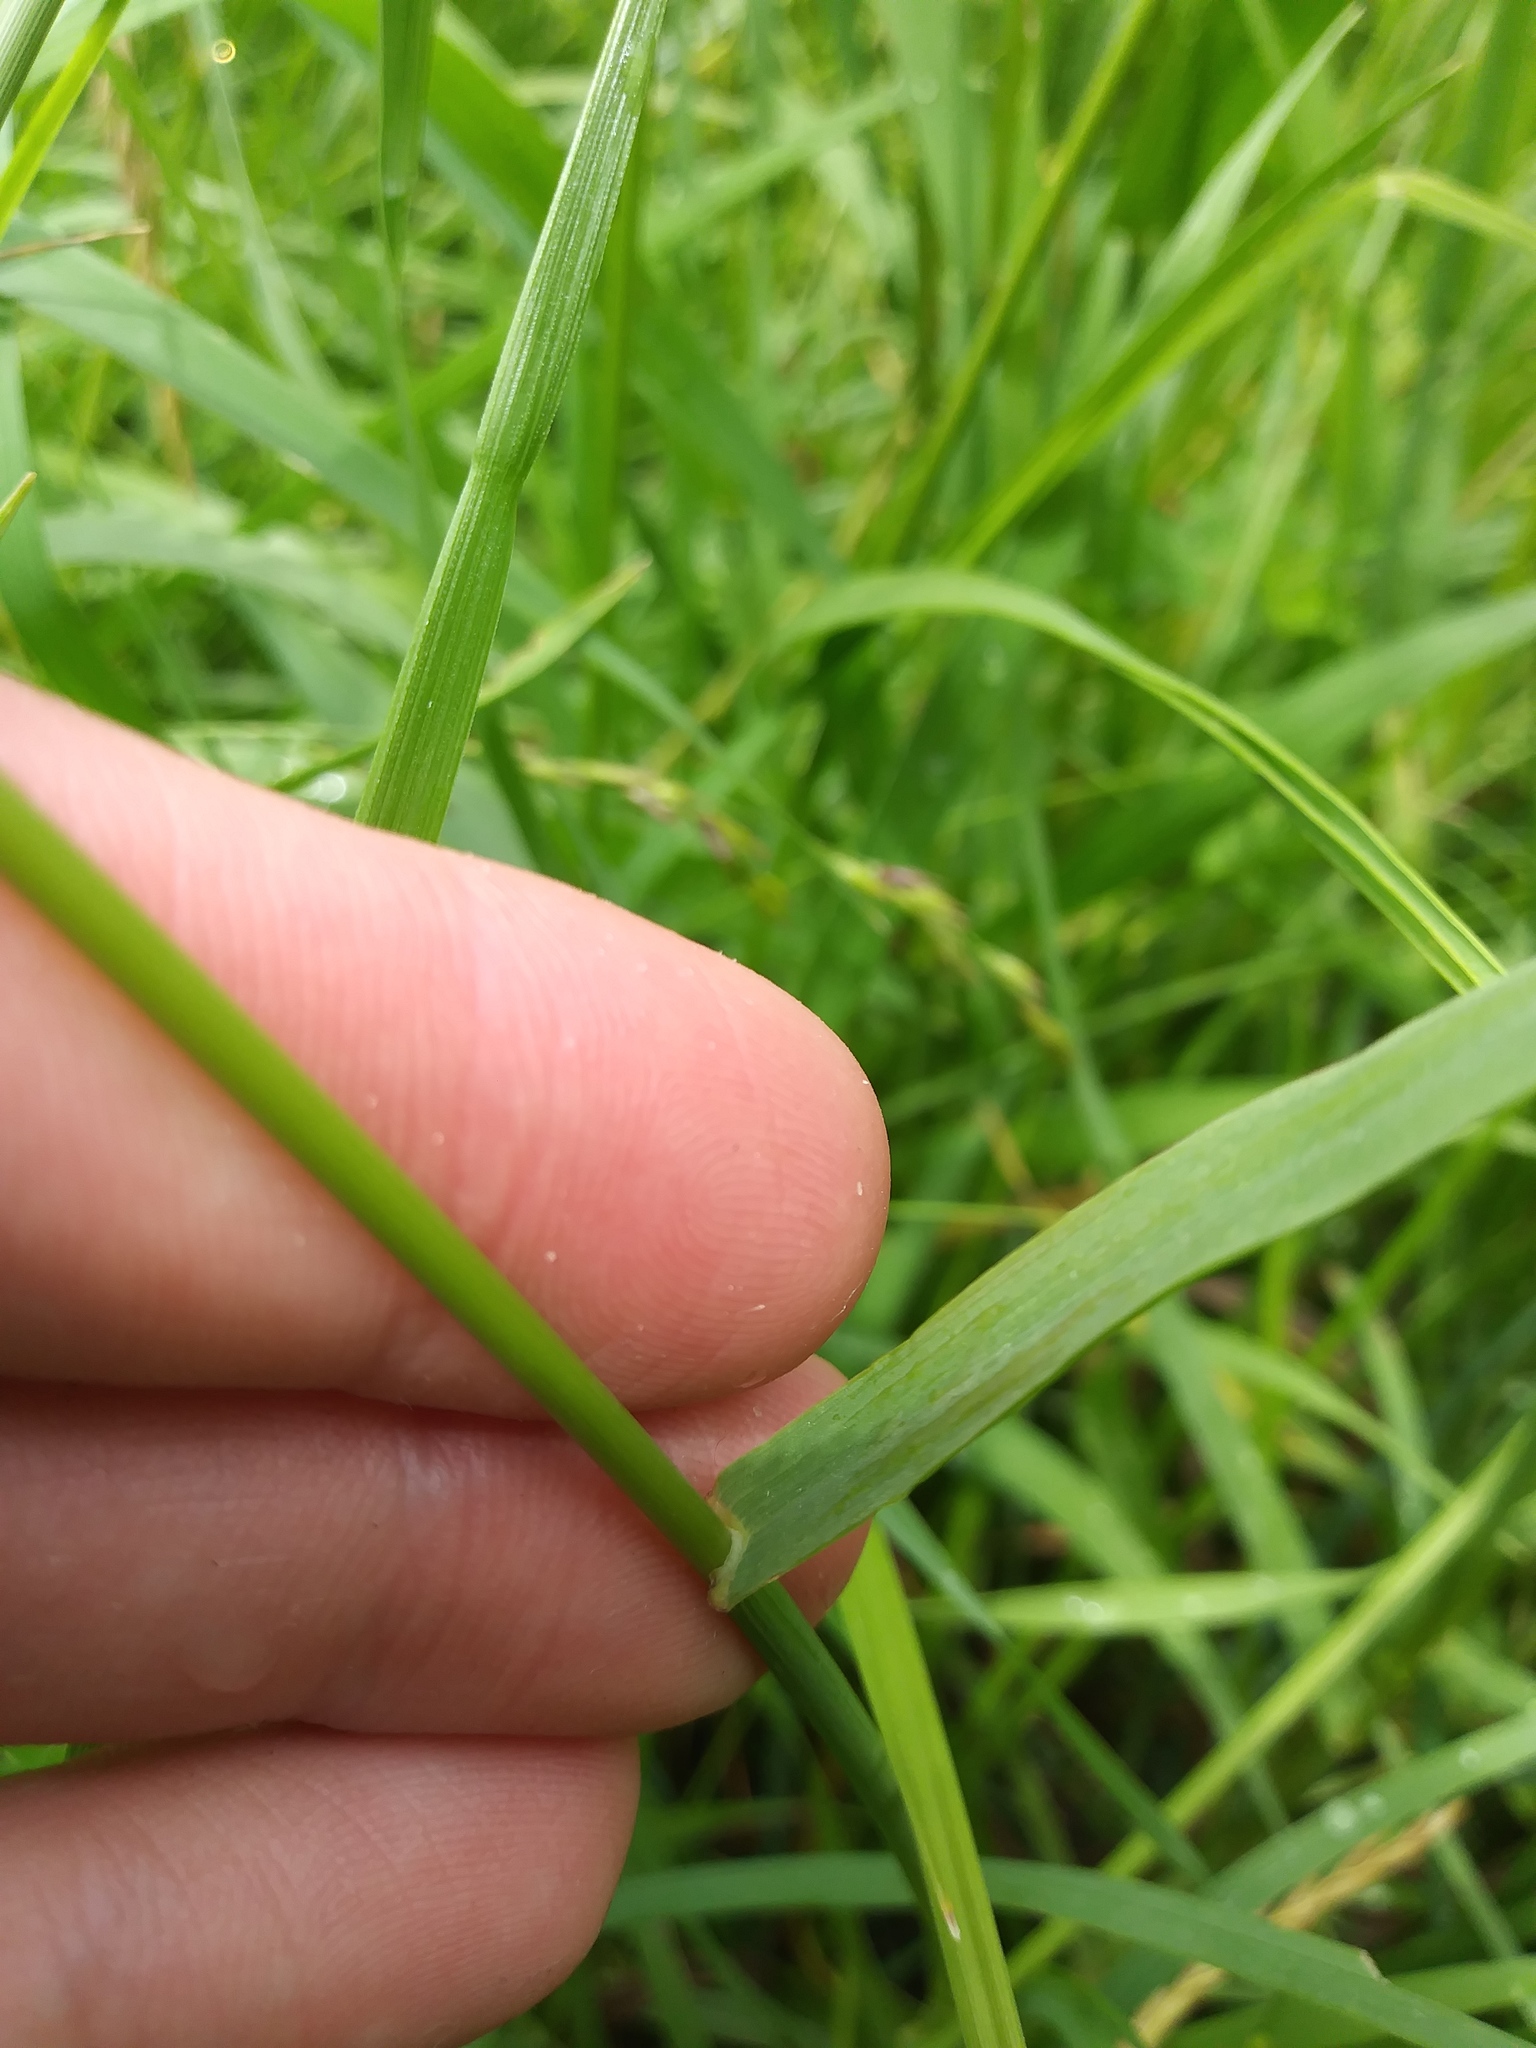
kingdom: Plantae
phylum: Tracheophyta
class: Liliopsida
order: Poales
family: Poaceae
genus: Bromus
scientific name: Bromus inermis
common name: Smooth brome
